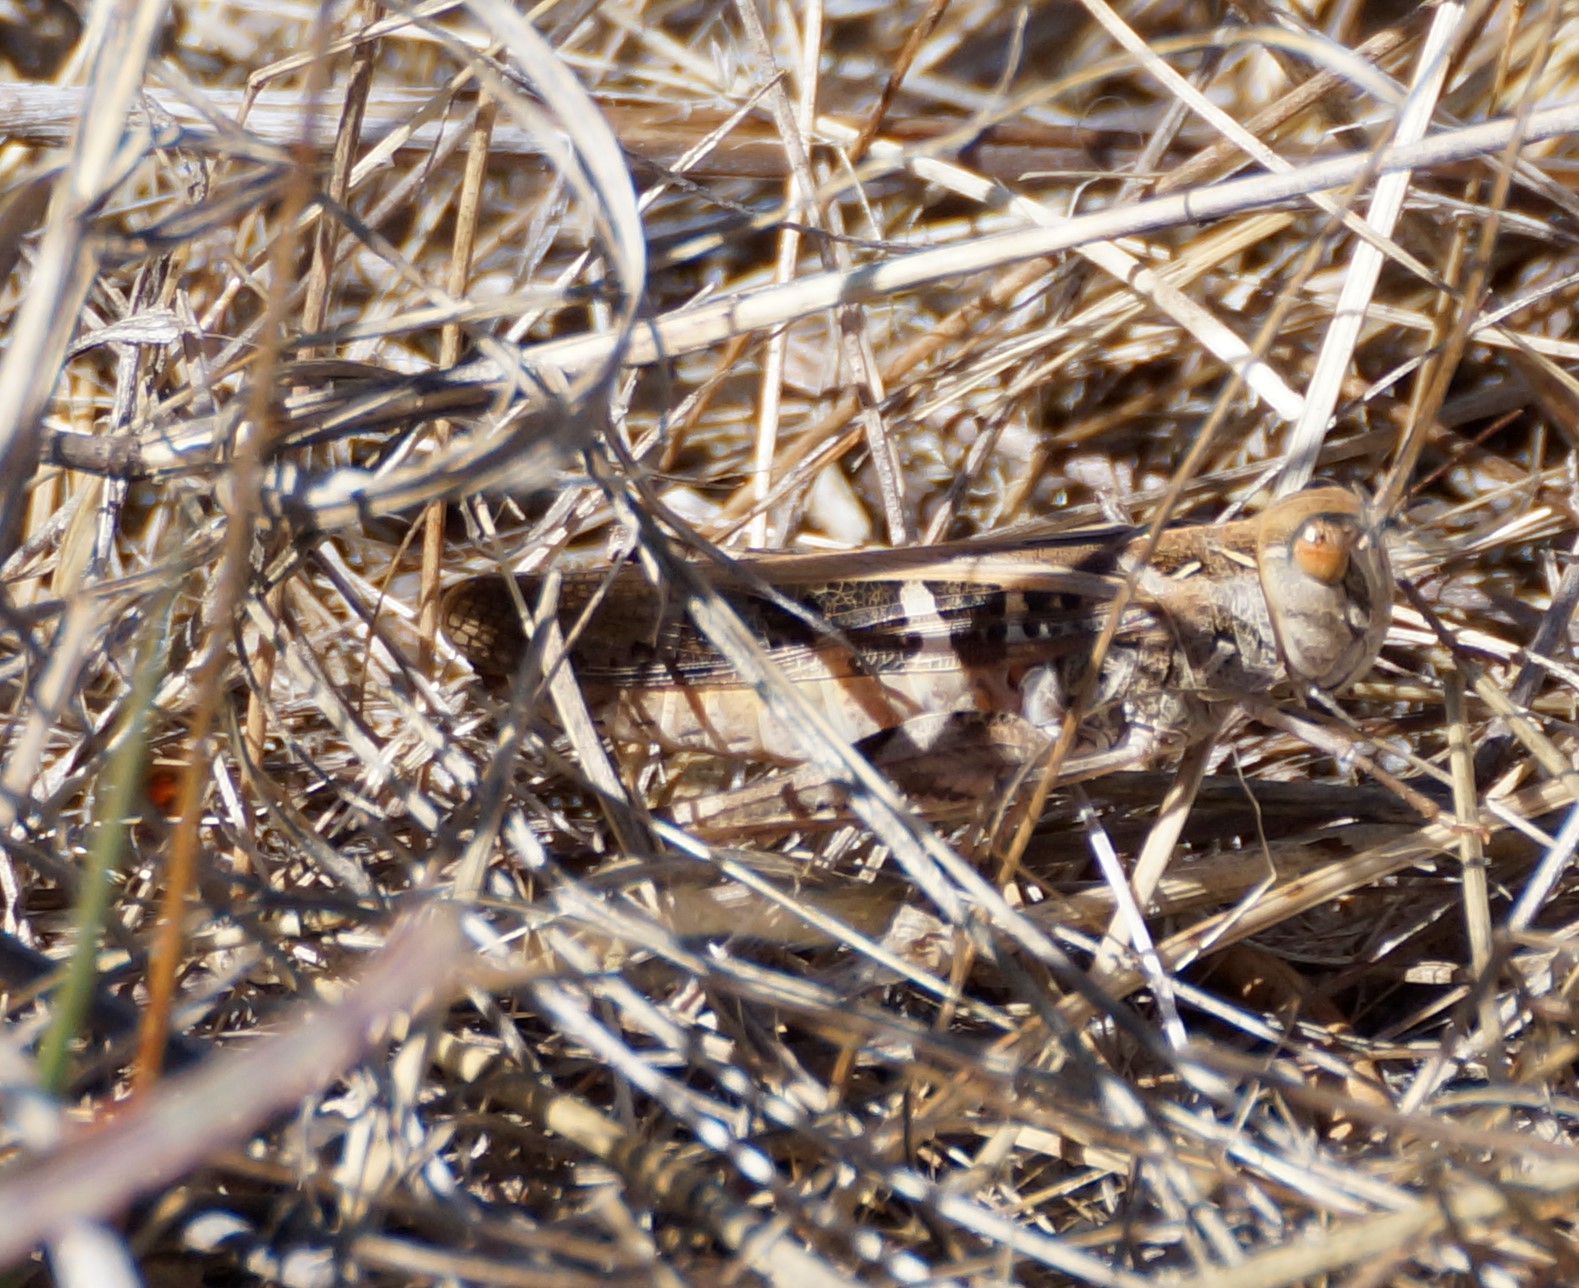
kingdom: Animalia
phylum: Arthropoda
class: Insecta
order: Orthoptera
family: Acrididae
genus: Oedaleus
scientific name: Oedaleus australis
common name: Eastern oedaleus
